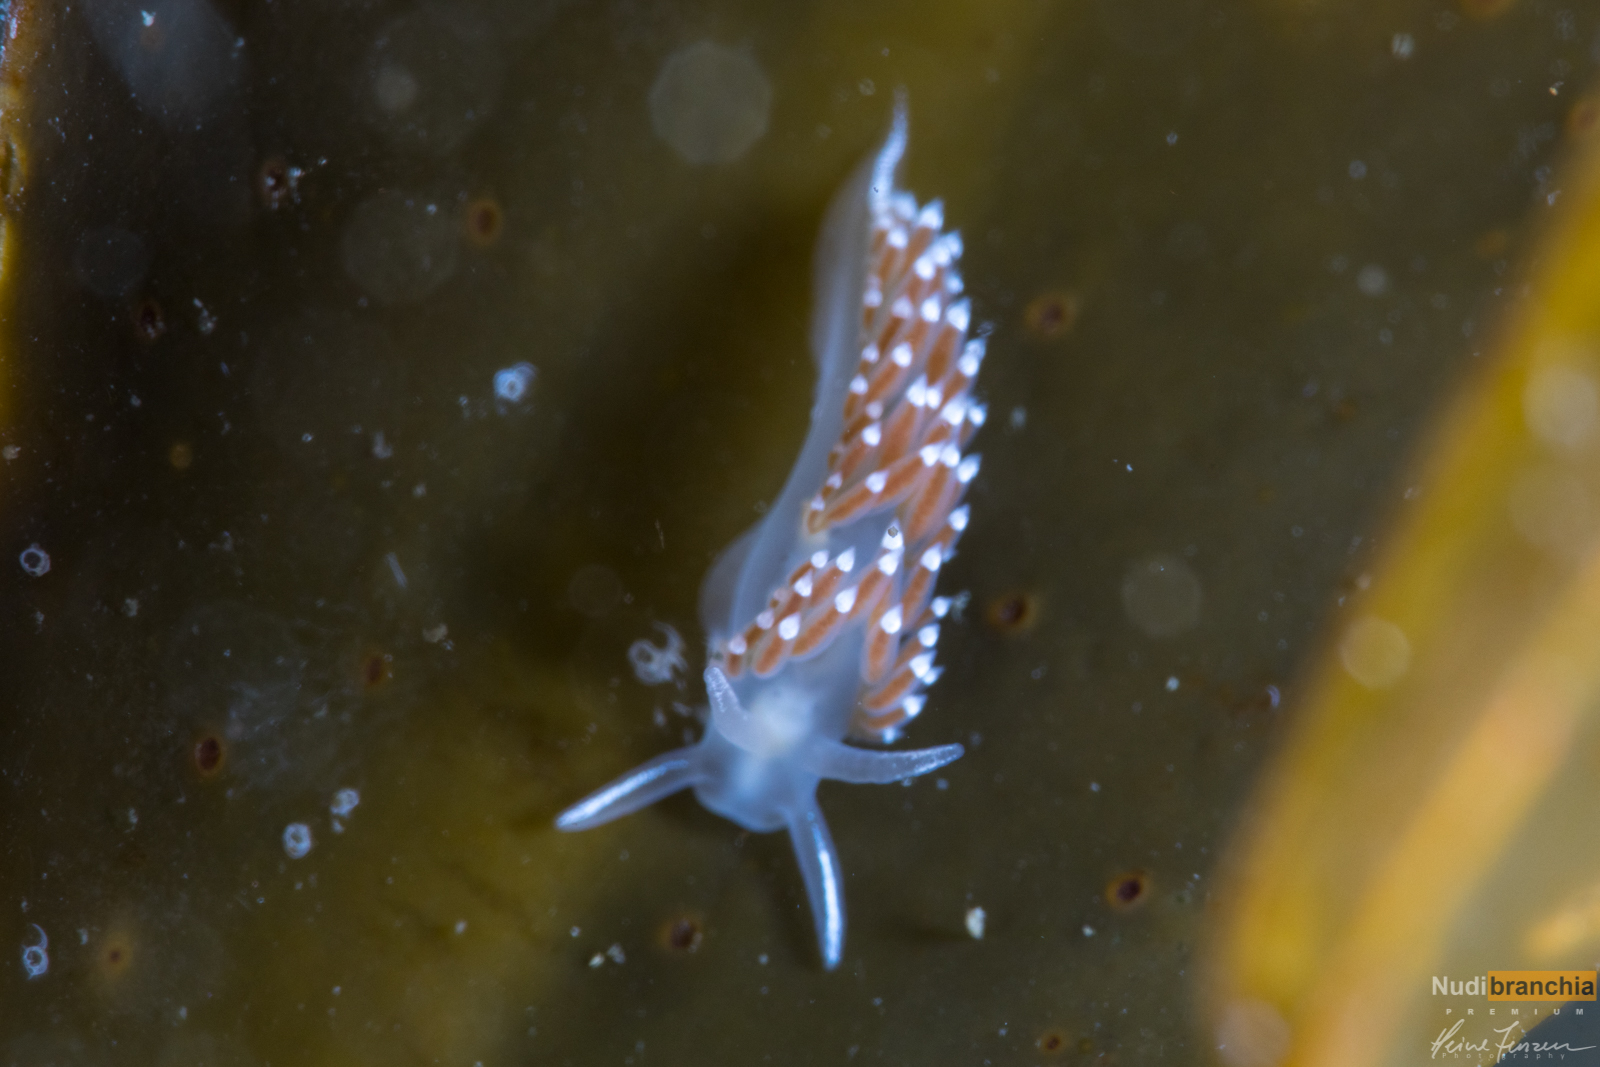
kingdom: Animalia
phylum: Mollusca
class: Gastropoda
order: Nudibranchia
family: Coryphellidae
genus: Coryphella
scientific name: Coryphella verrucosa
